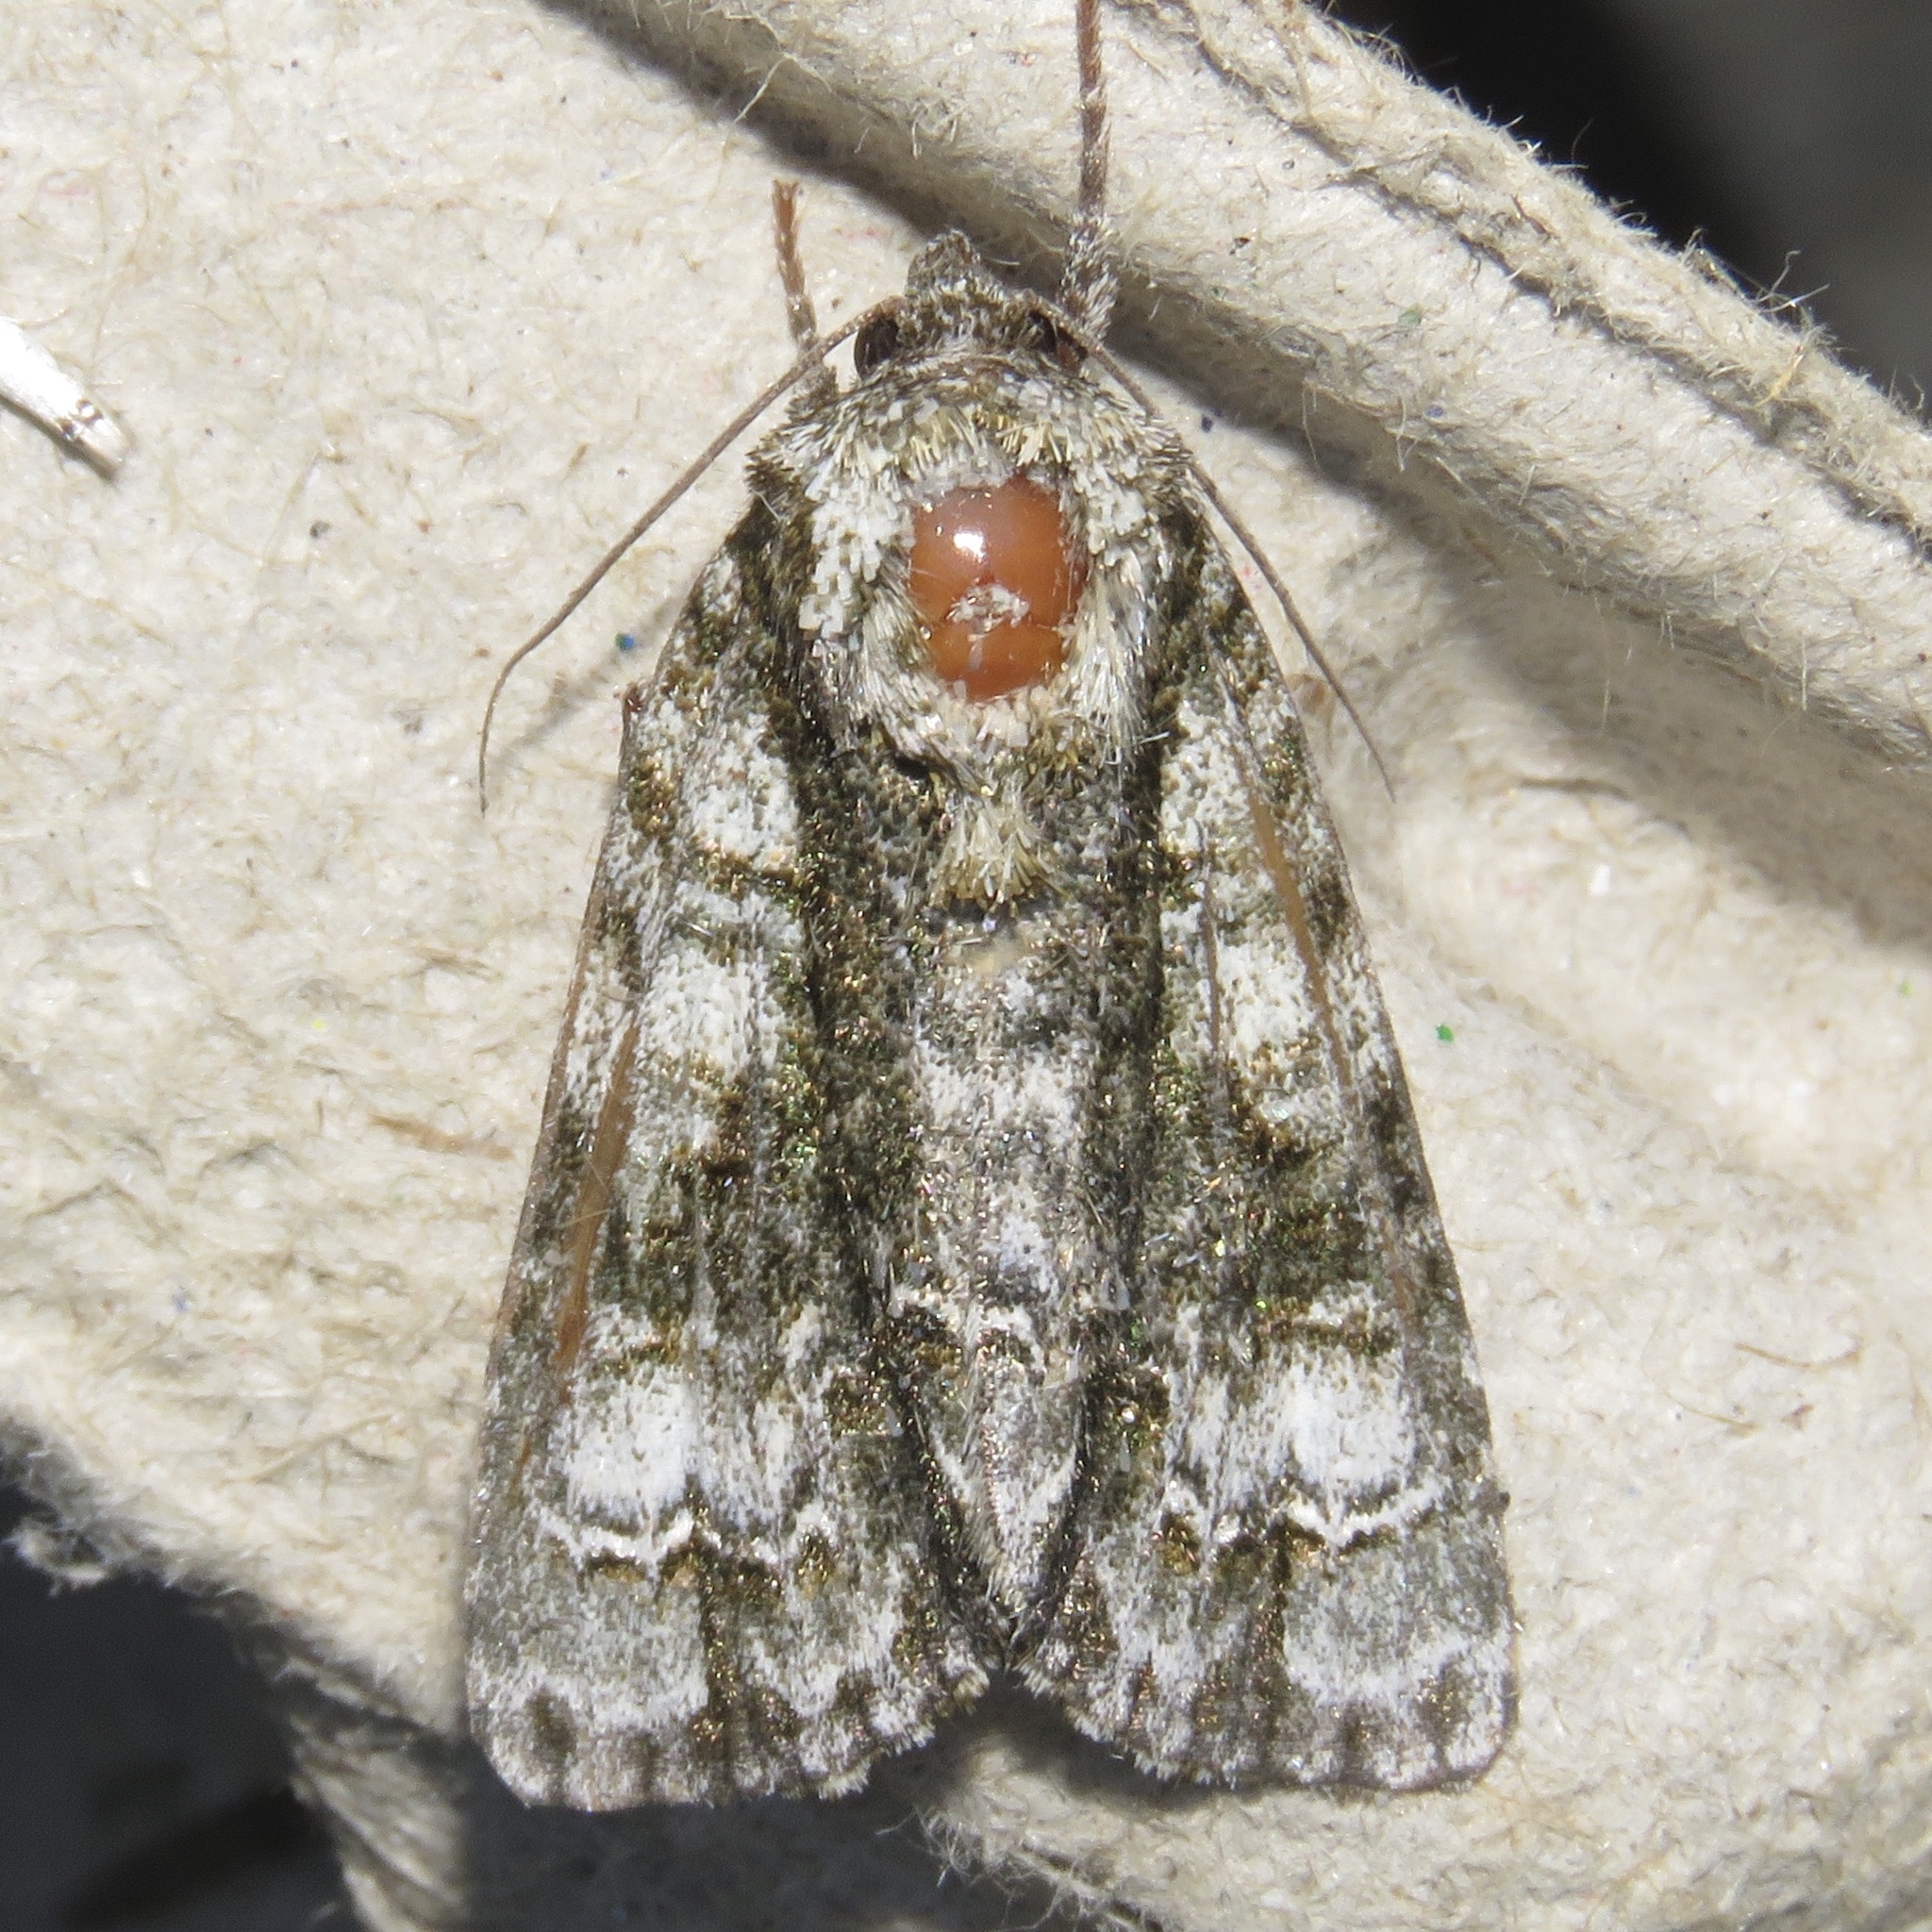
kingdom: Animalia
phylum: Arthropoda
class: Insecta
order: Lepidoptera
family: Noctuidae
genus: Acronicta
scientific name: Acronicta superans
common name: Splendid dagger
